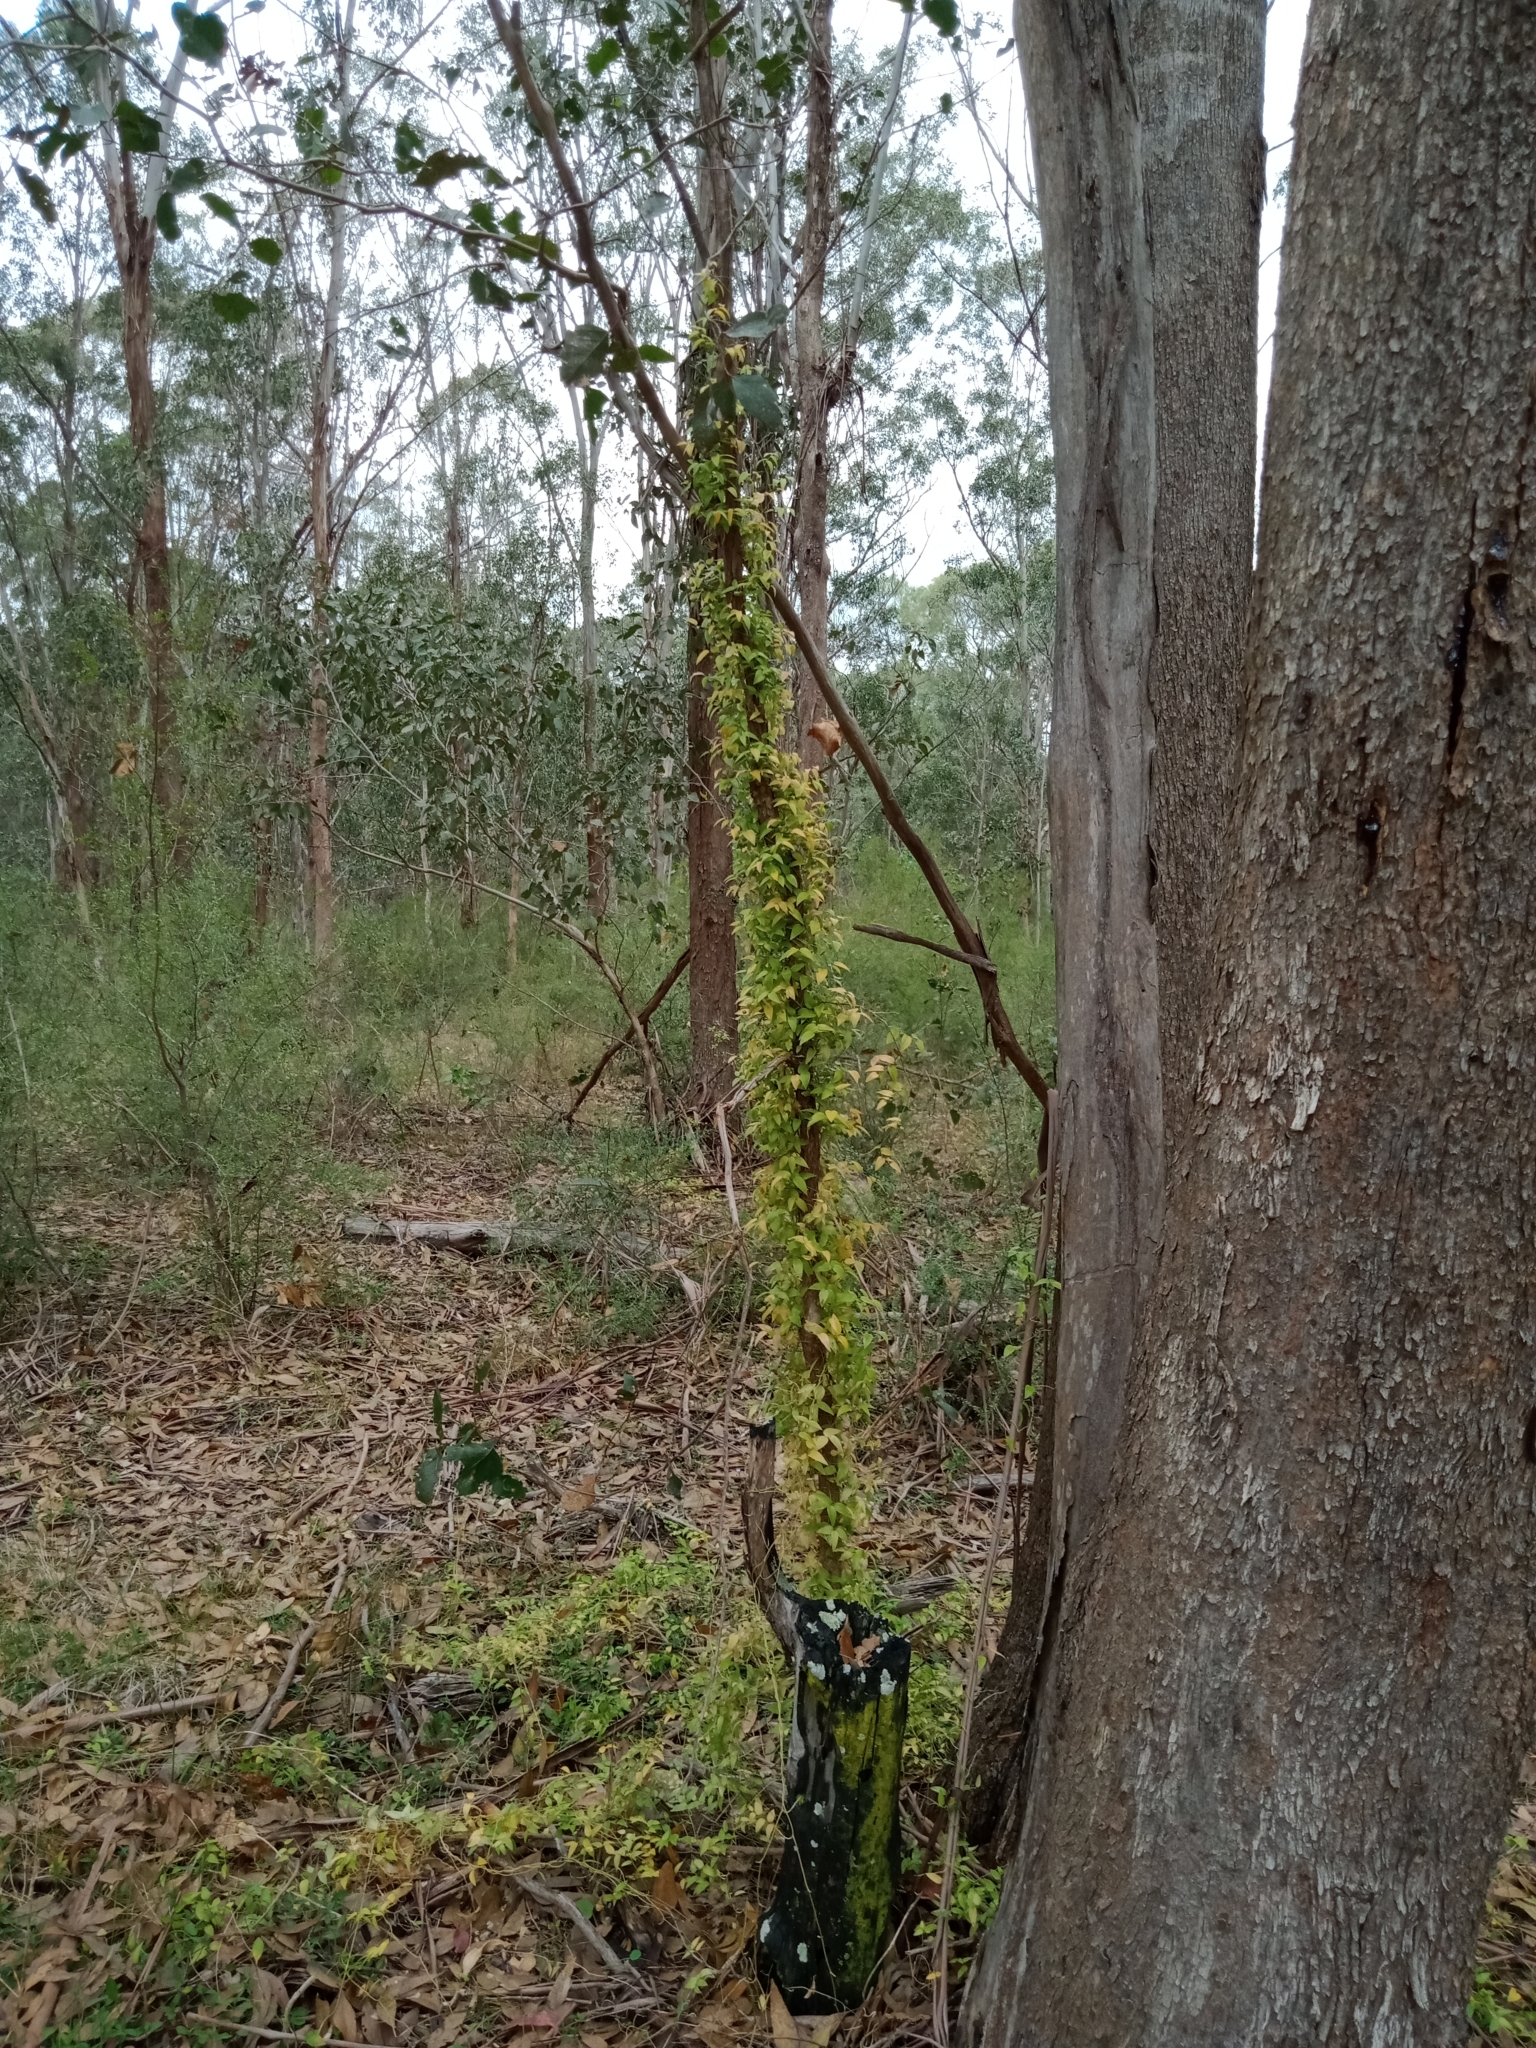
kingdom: Plantae
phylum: Tracheophyta
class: Liliopsida
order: Asparagales
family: Asparagaceae
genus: Asparagus
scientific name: Asparagus asparagoides
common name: African asparagus fern
